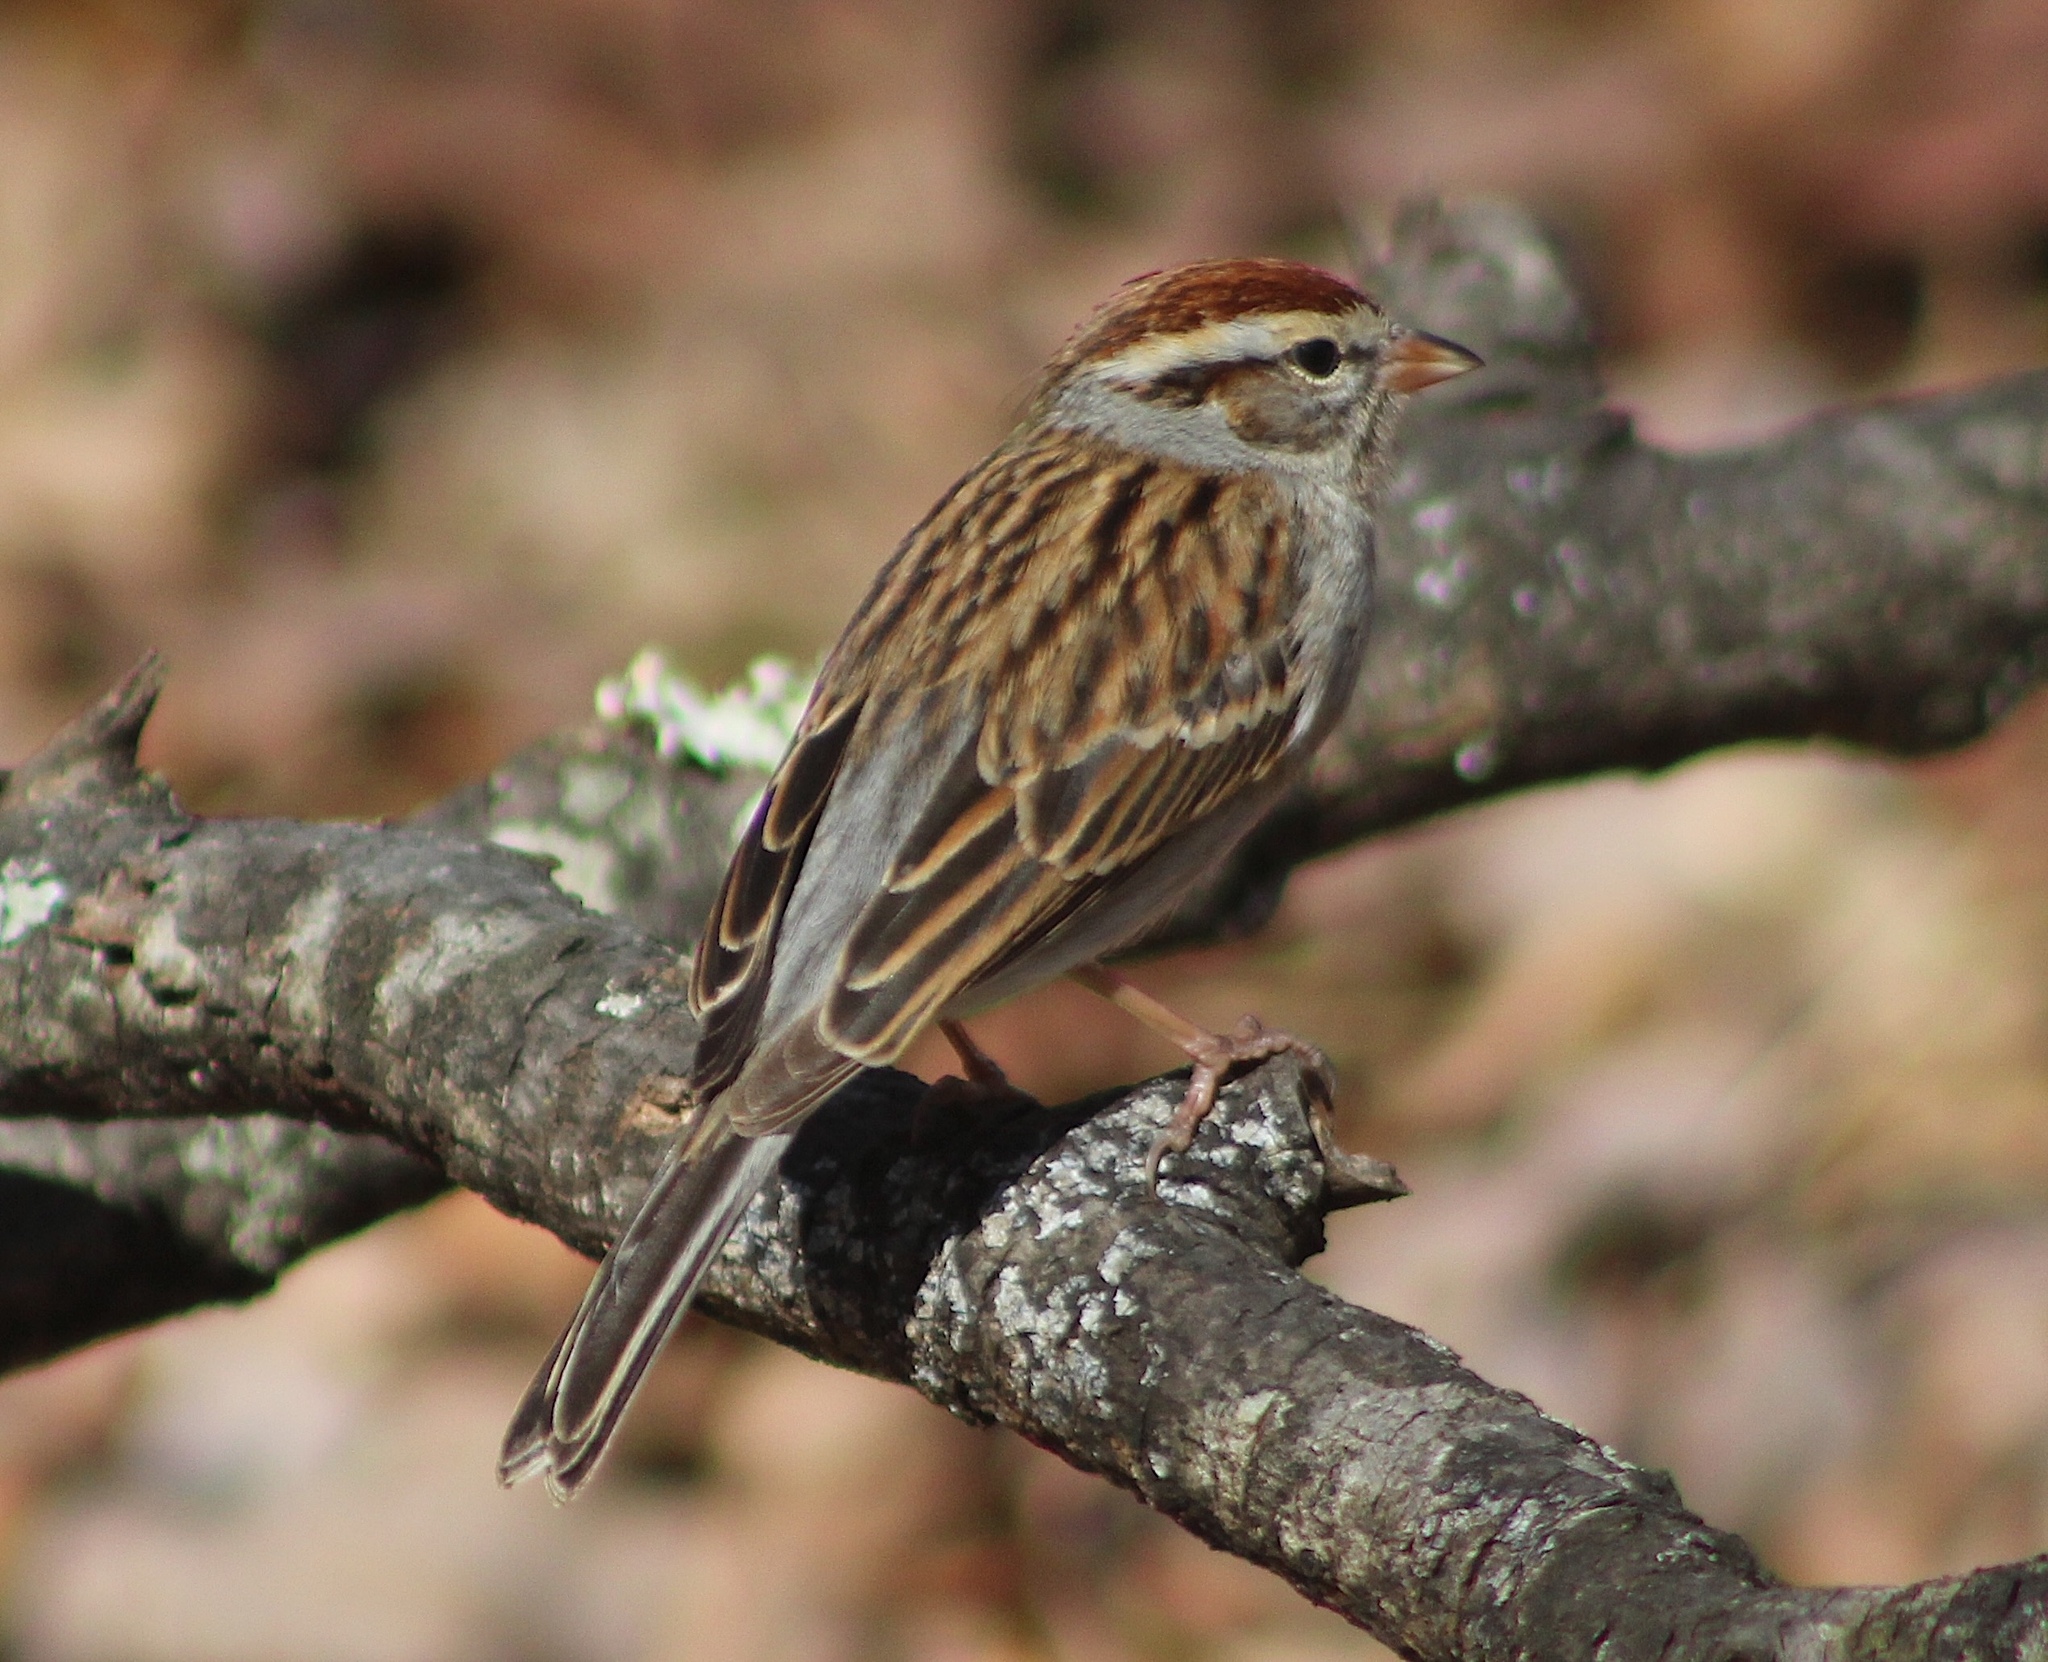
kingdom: Animalia
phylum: Chordata
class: Aves
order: Passeriformes
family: Passerellidae
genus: Spizella
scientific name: Spizella passerina
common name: Chipping sparrow
